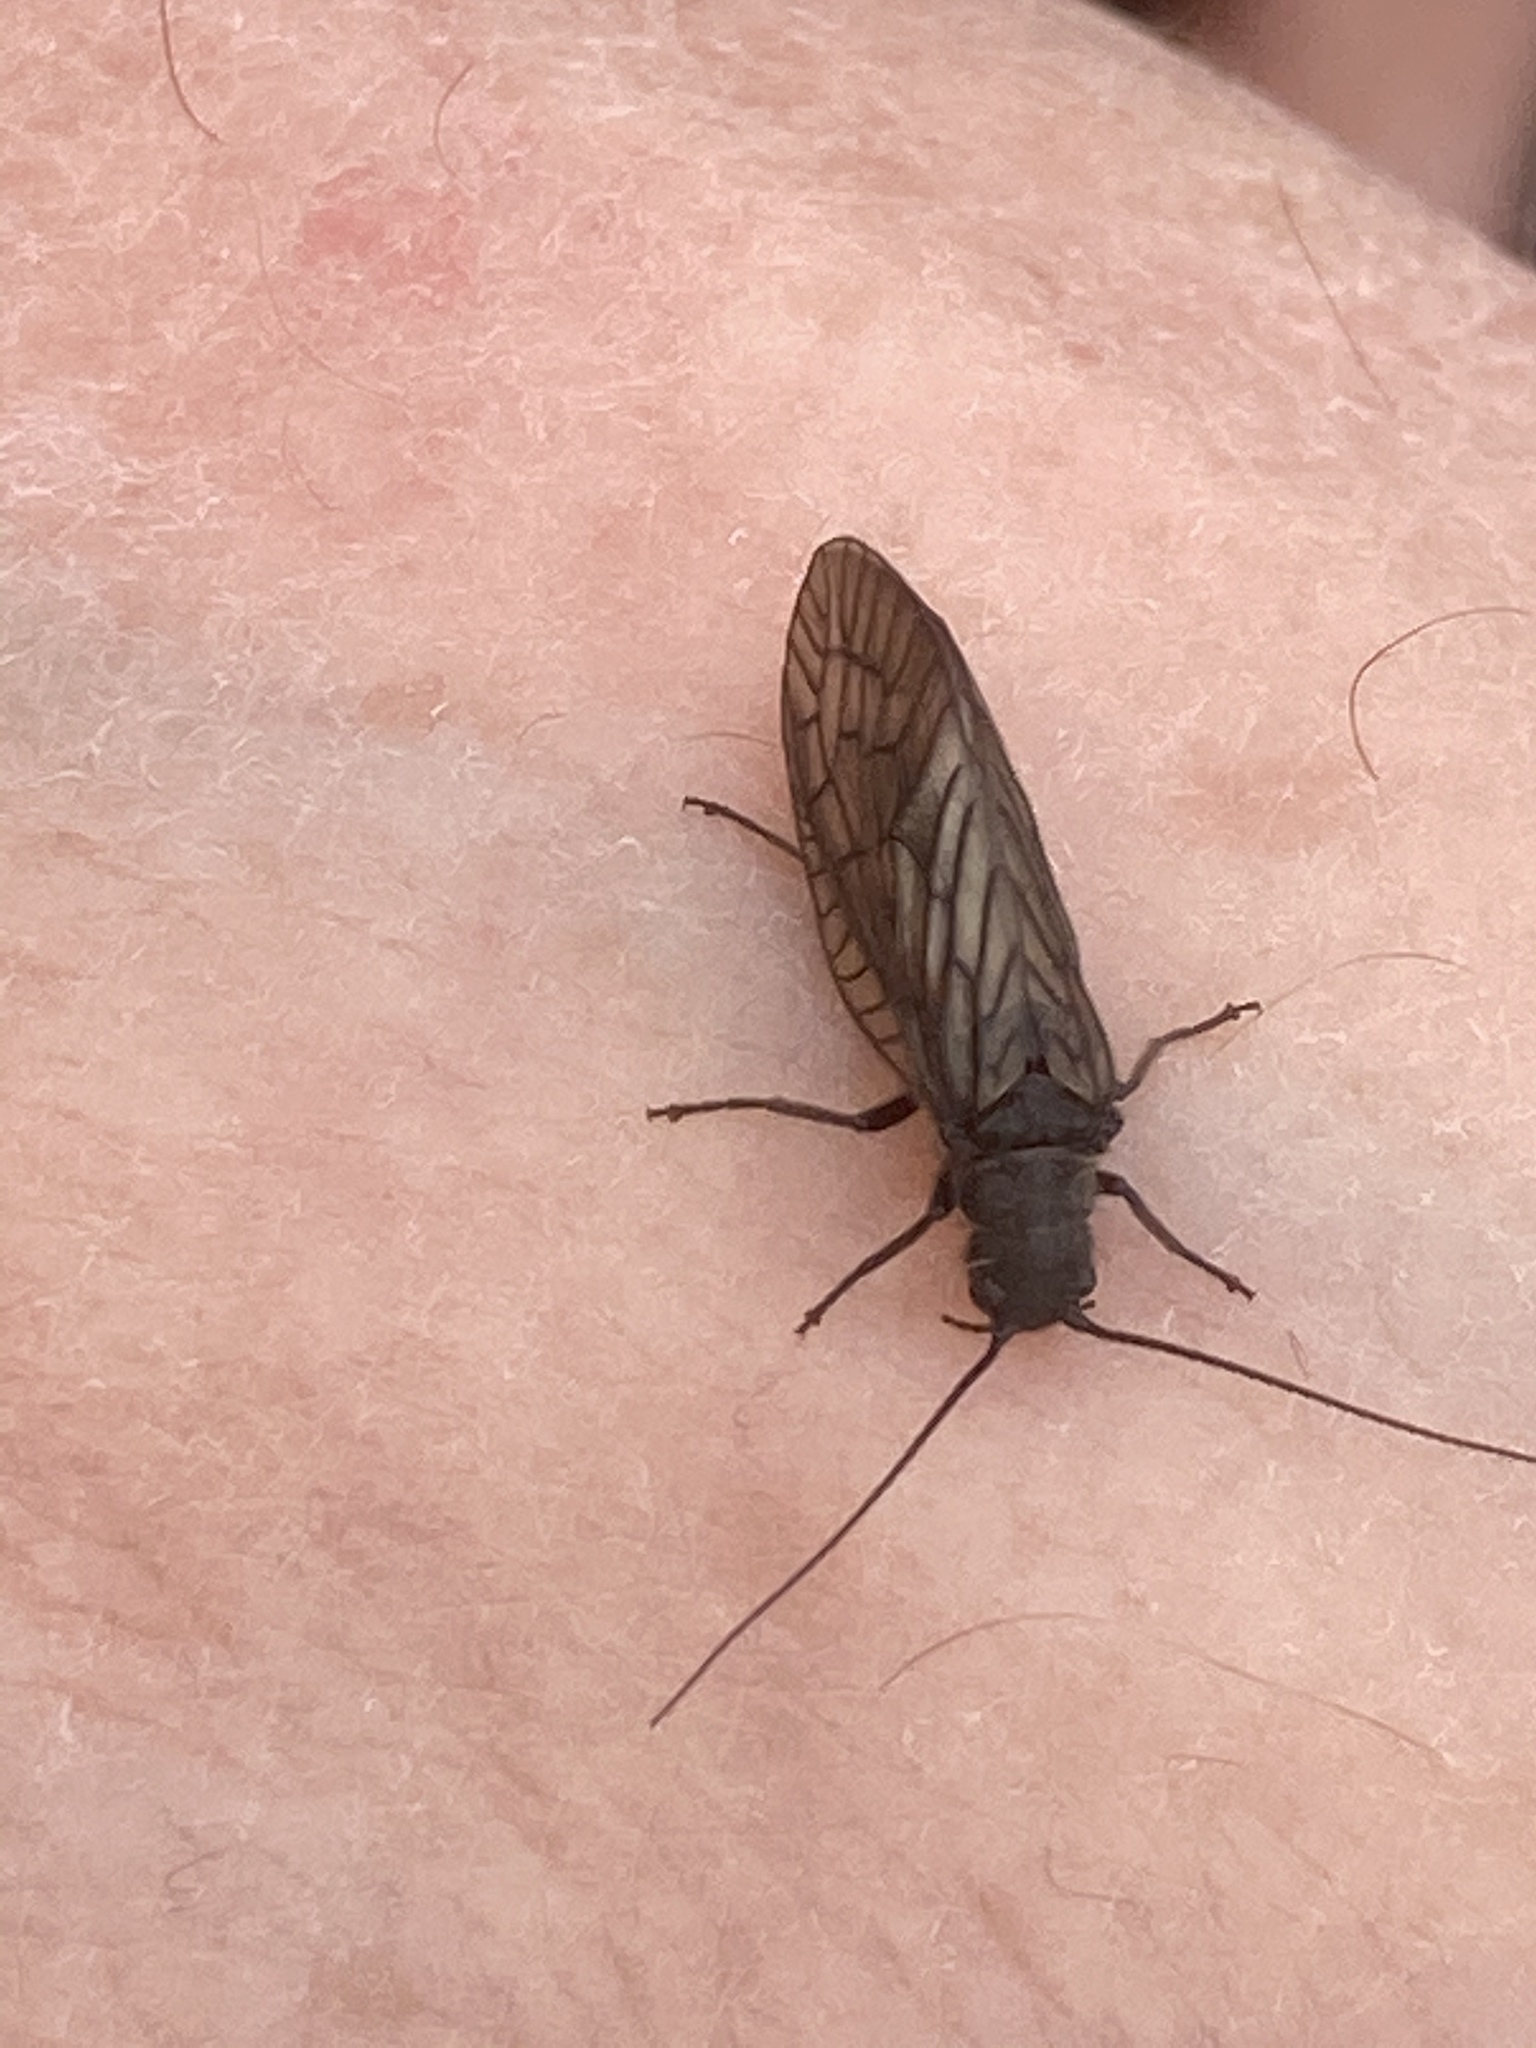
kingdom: Animalia
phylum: Arthropoda
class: Insecta
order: Megaloptera
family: Sialidae
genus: Sialis
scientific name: Sialis
